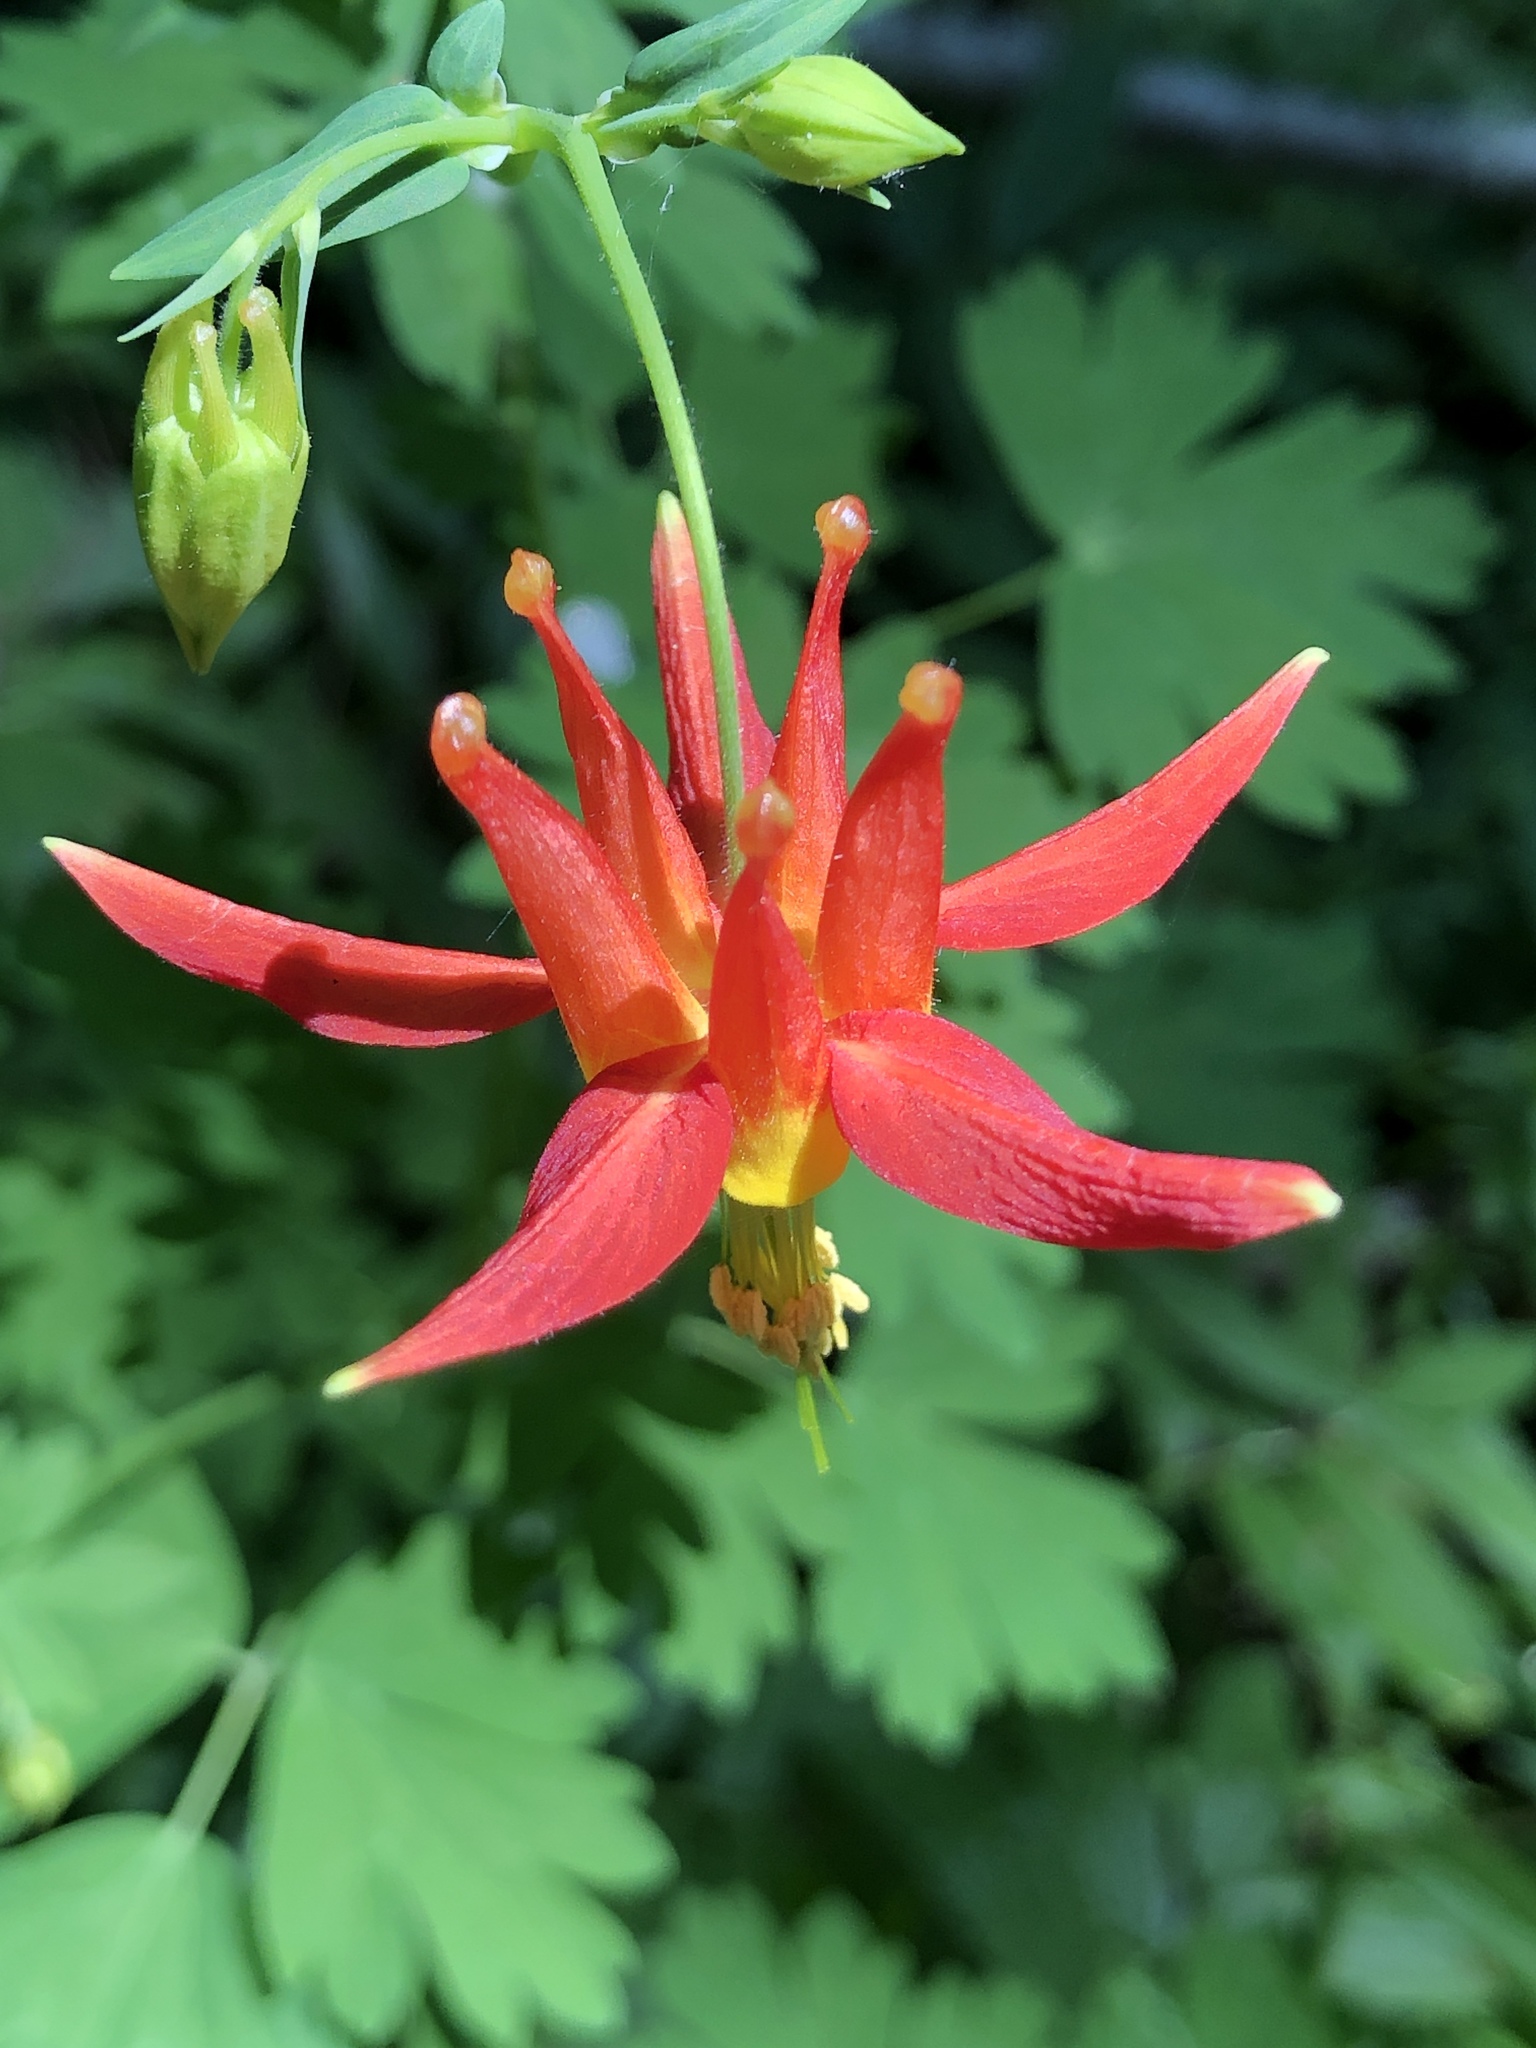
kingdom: Plantae
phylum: Tracheophyta
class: Magnoliopsida
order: Ranunculales
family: Ranunculaceae
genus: Aquilegia
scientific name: Aquilegia formosa
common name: Sitka columbine
